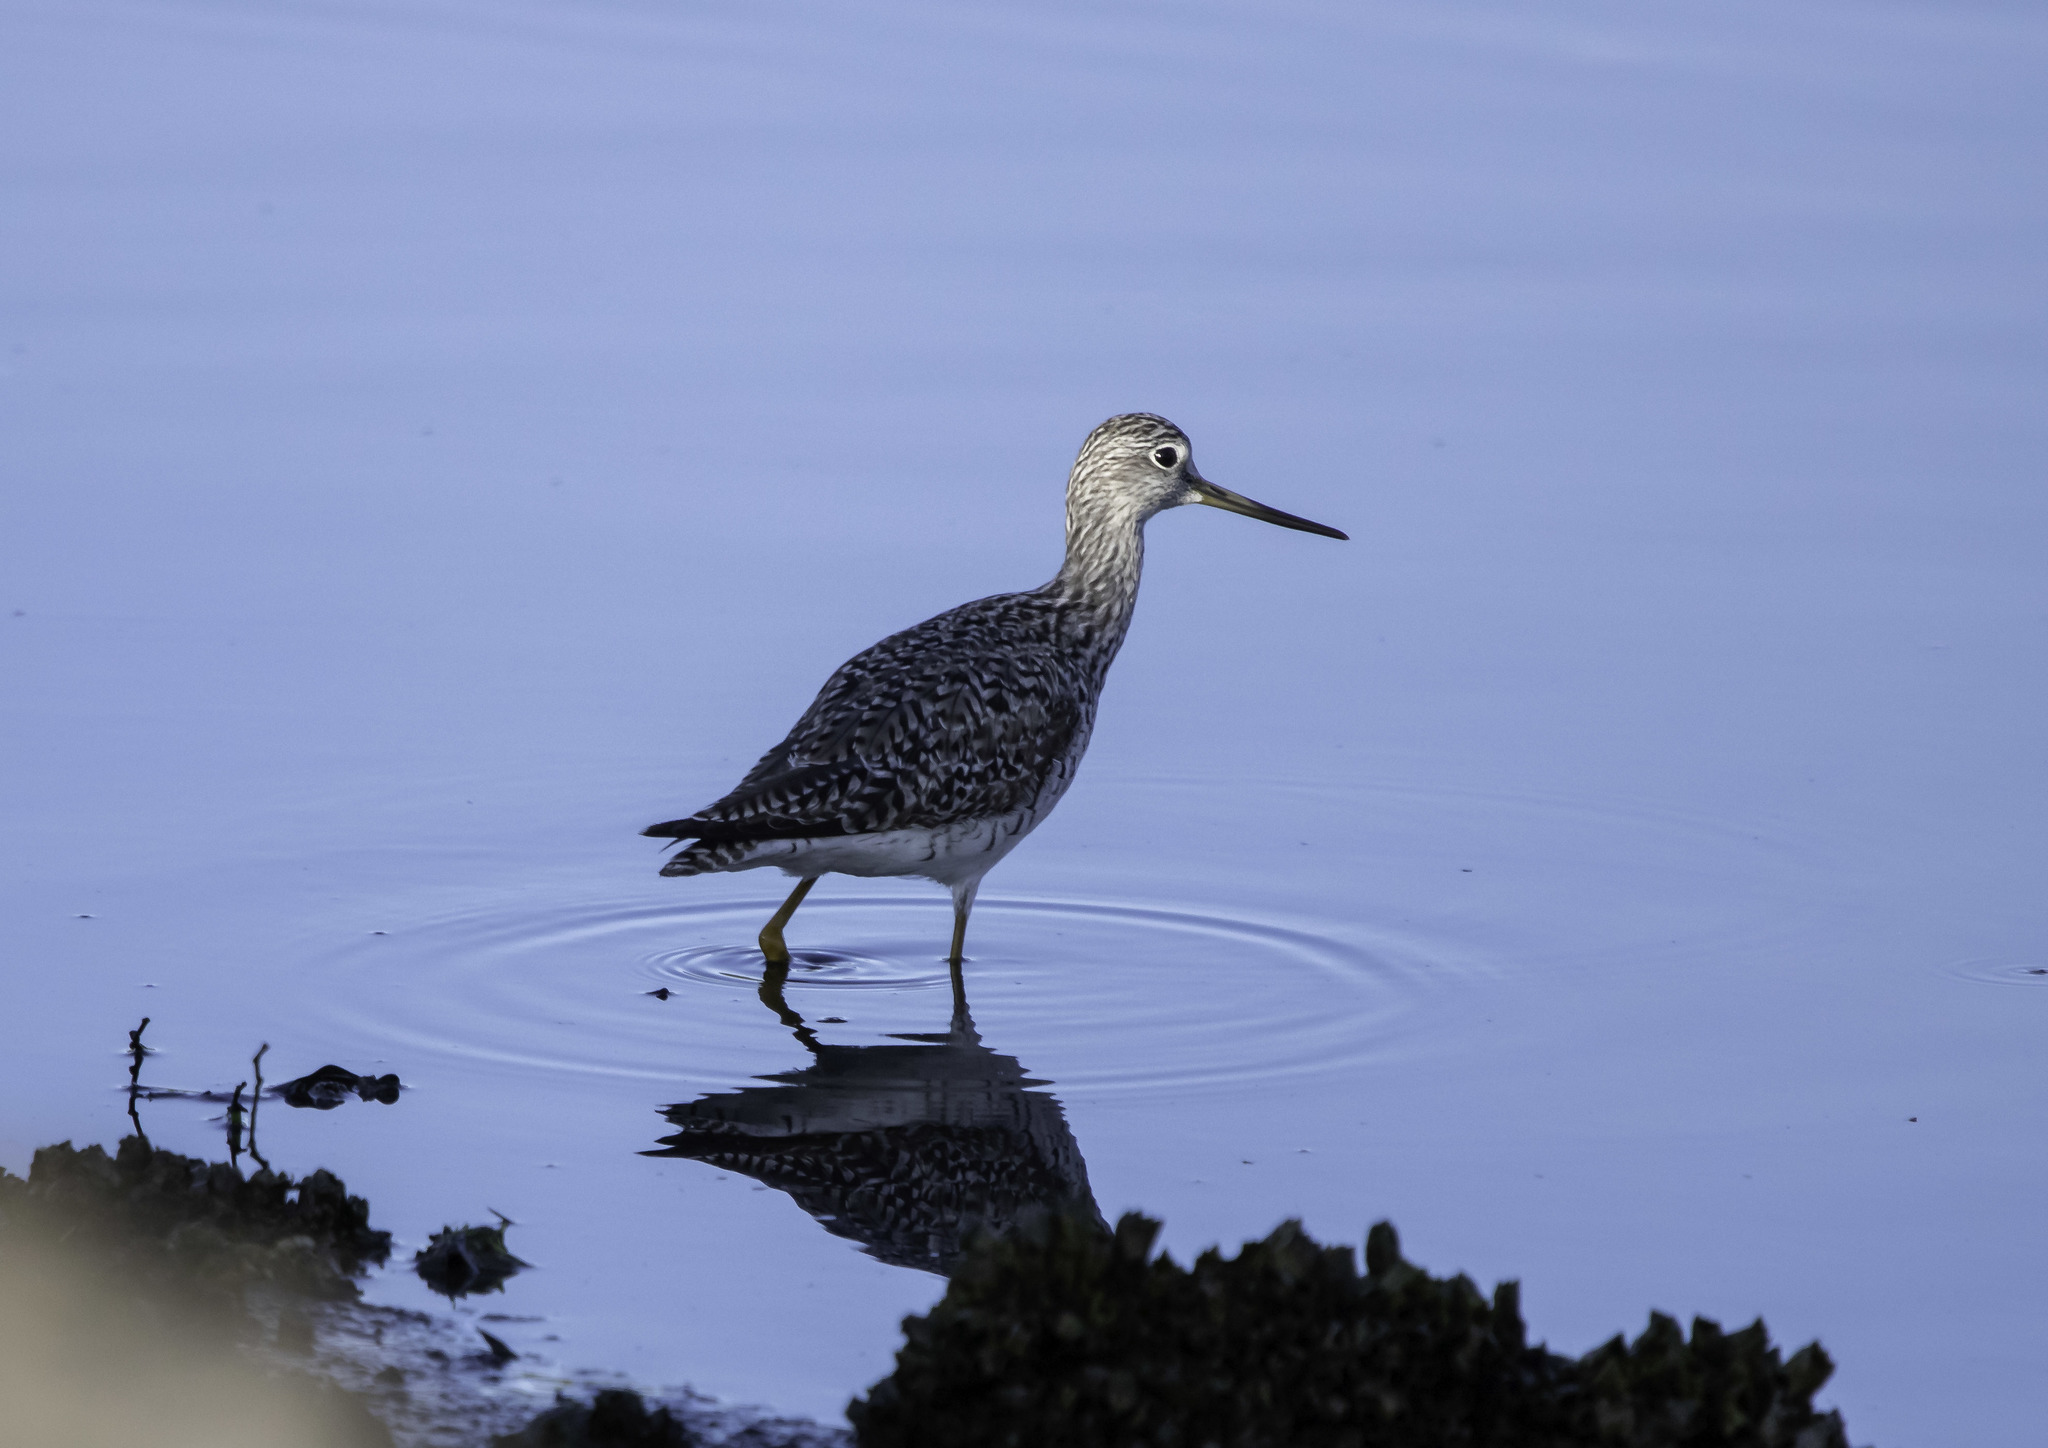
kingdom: Animalia
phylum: Chordata
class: Aves
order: Charadriiformes
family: Scolopacidae
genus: Tringa
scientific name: Tringa melanoleuca
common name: Greater yellowlegs
